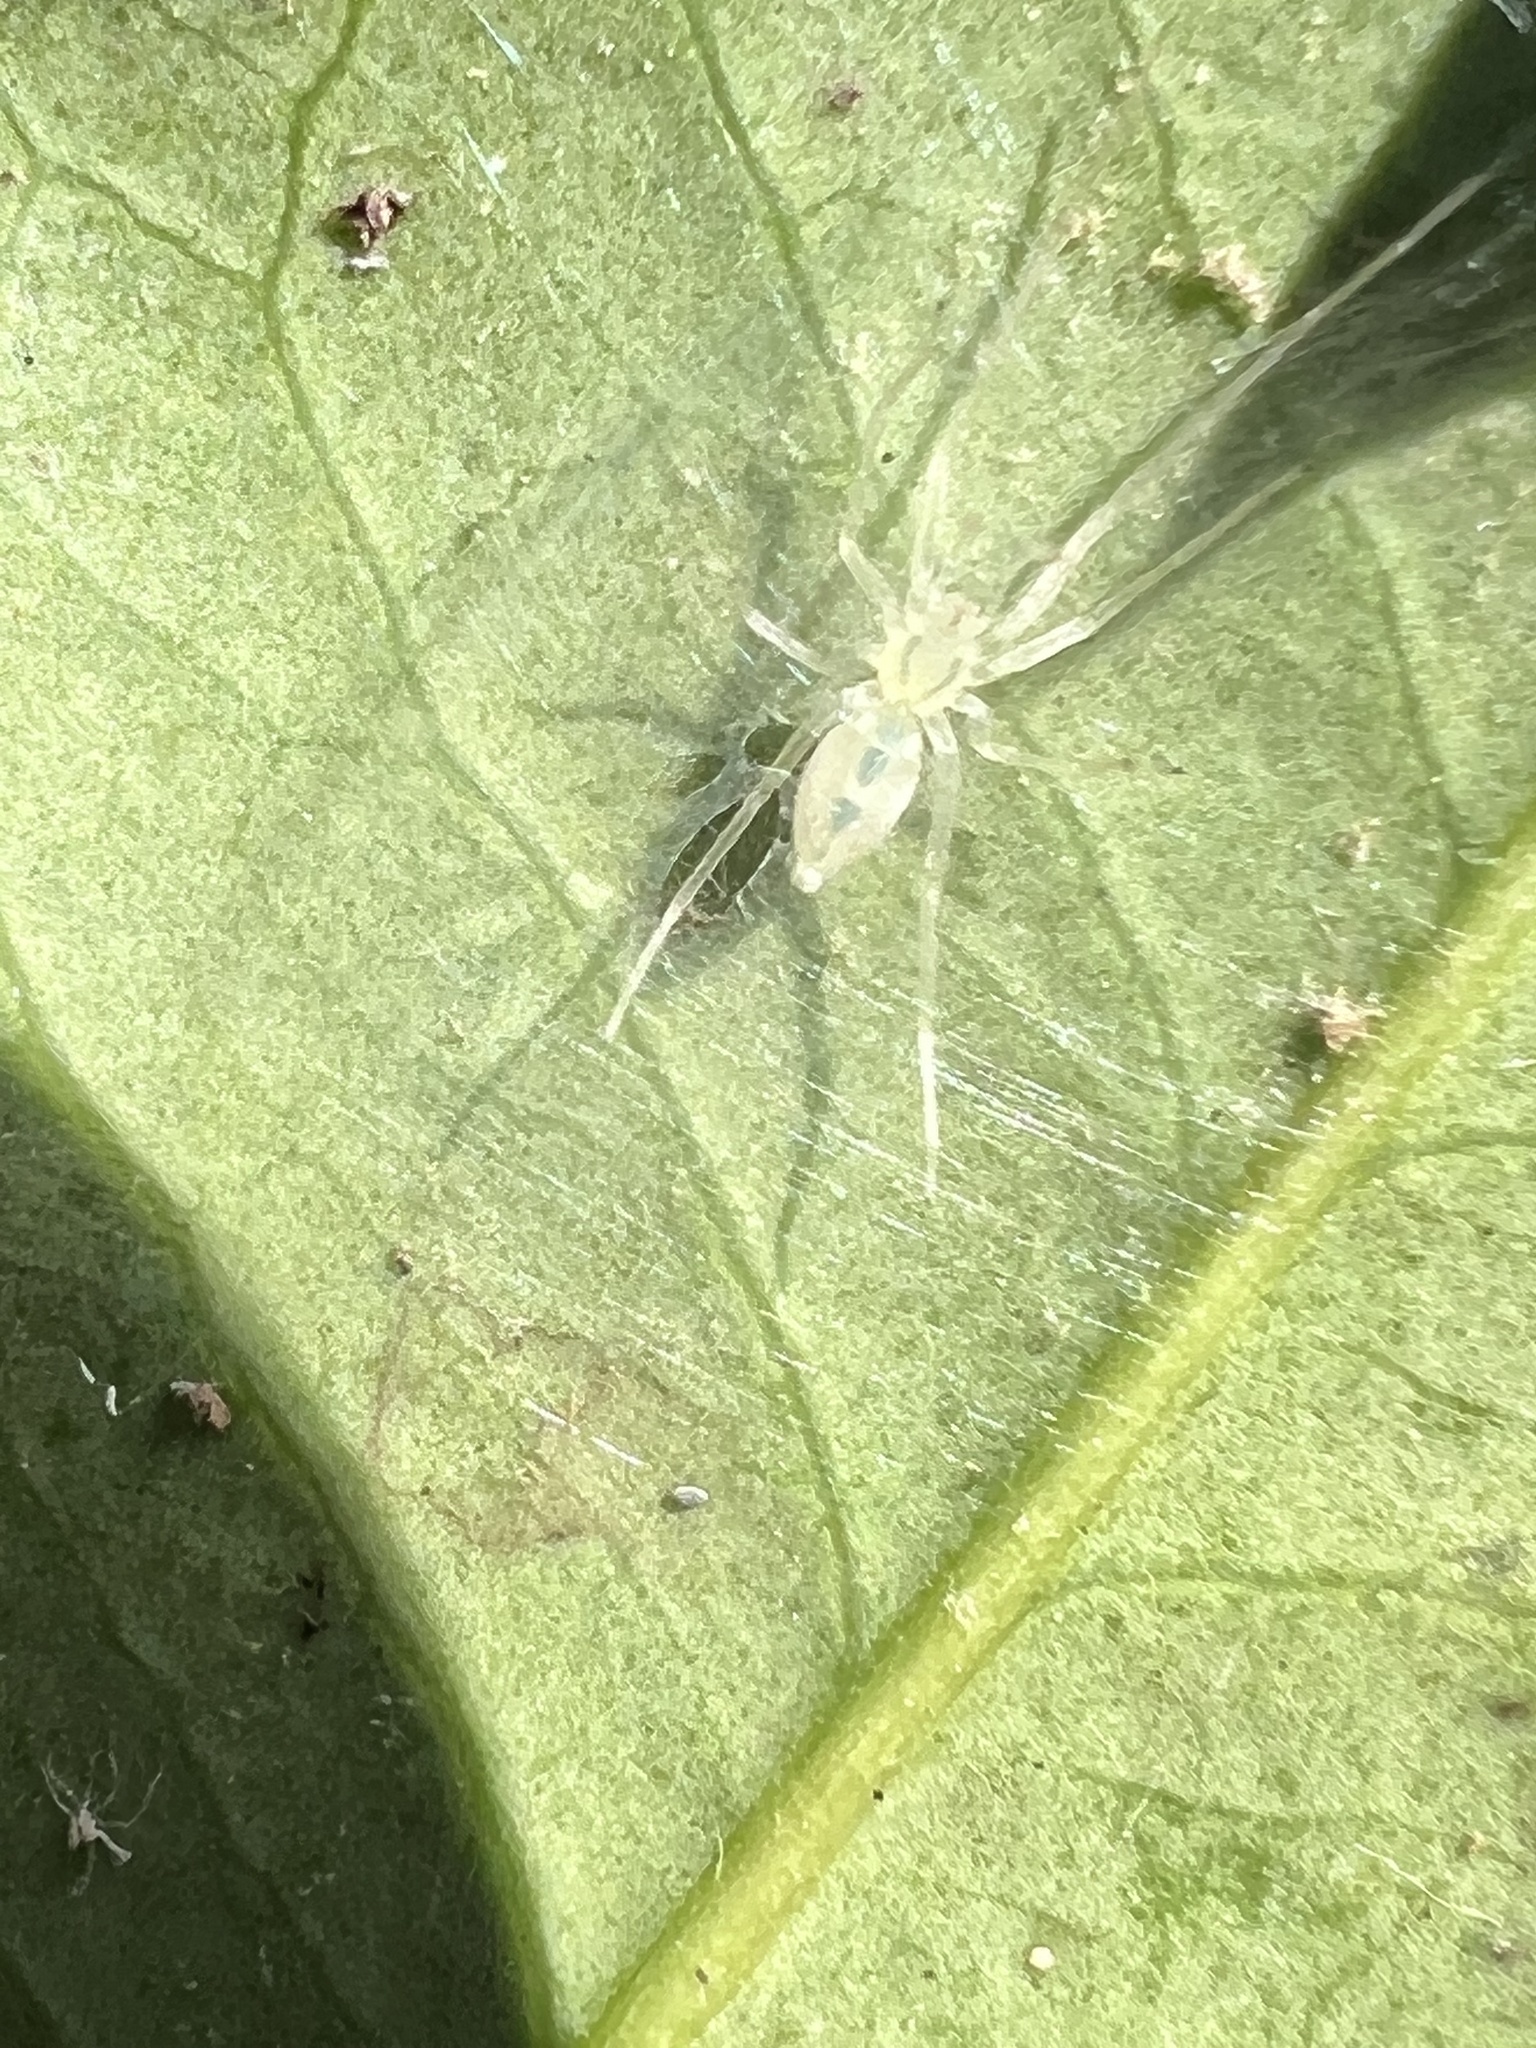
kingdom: Animalia
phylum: Arthropoda
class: Arachnida
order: Araneae
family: Anyphaenidae
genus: Wulfila
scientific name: Wulfila albens
